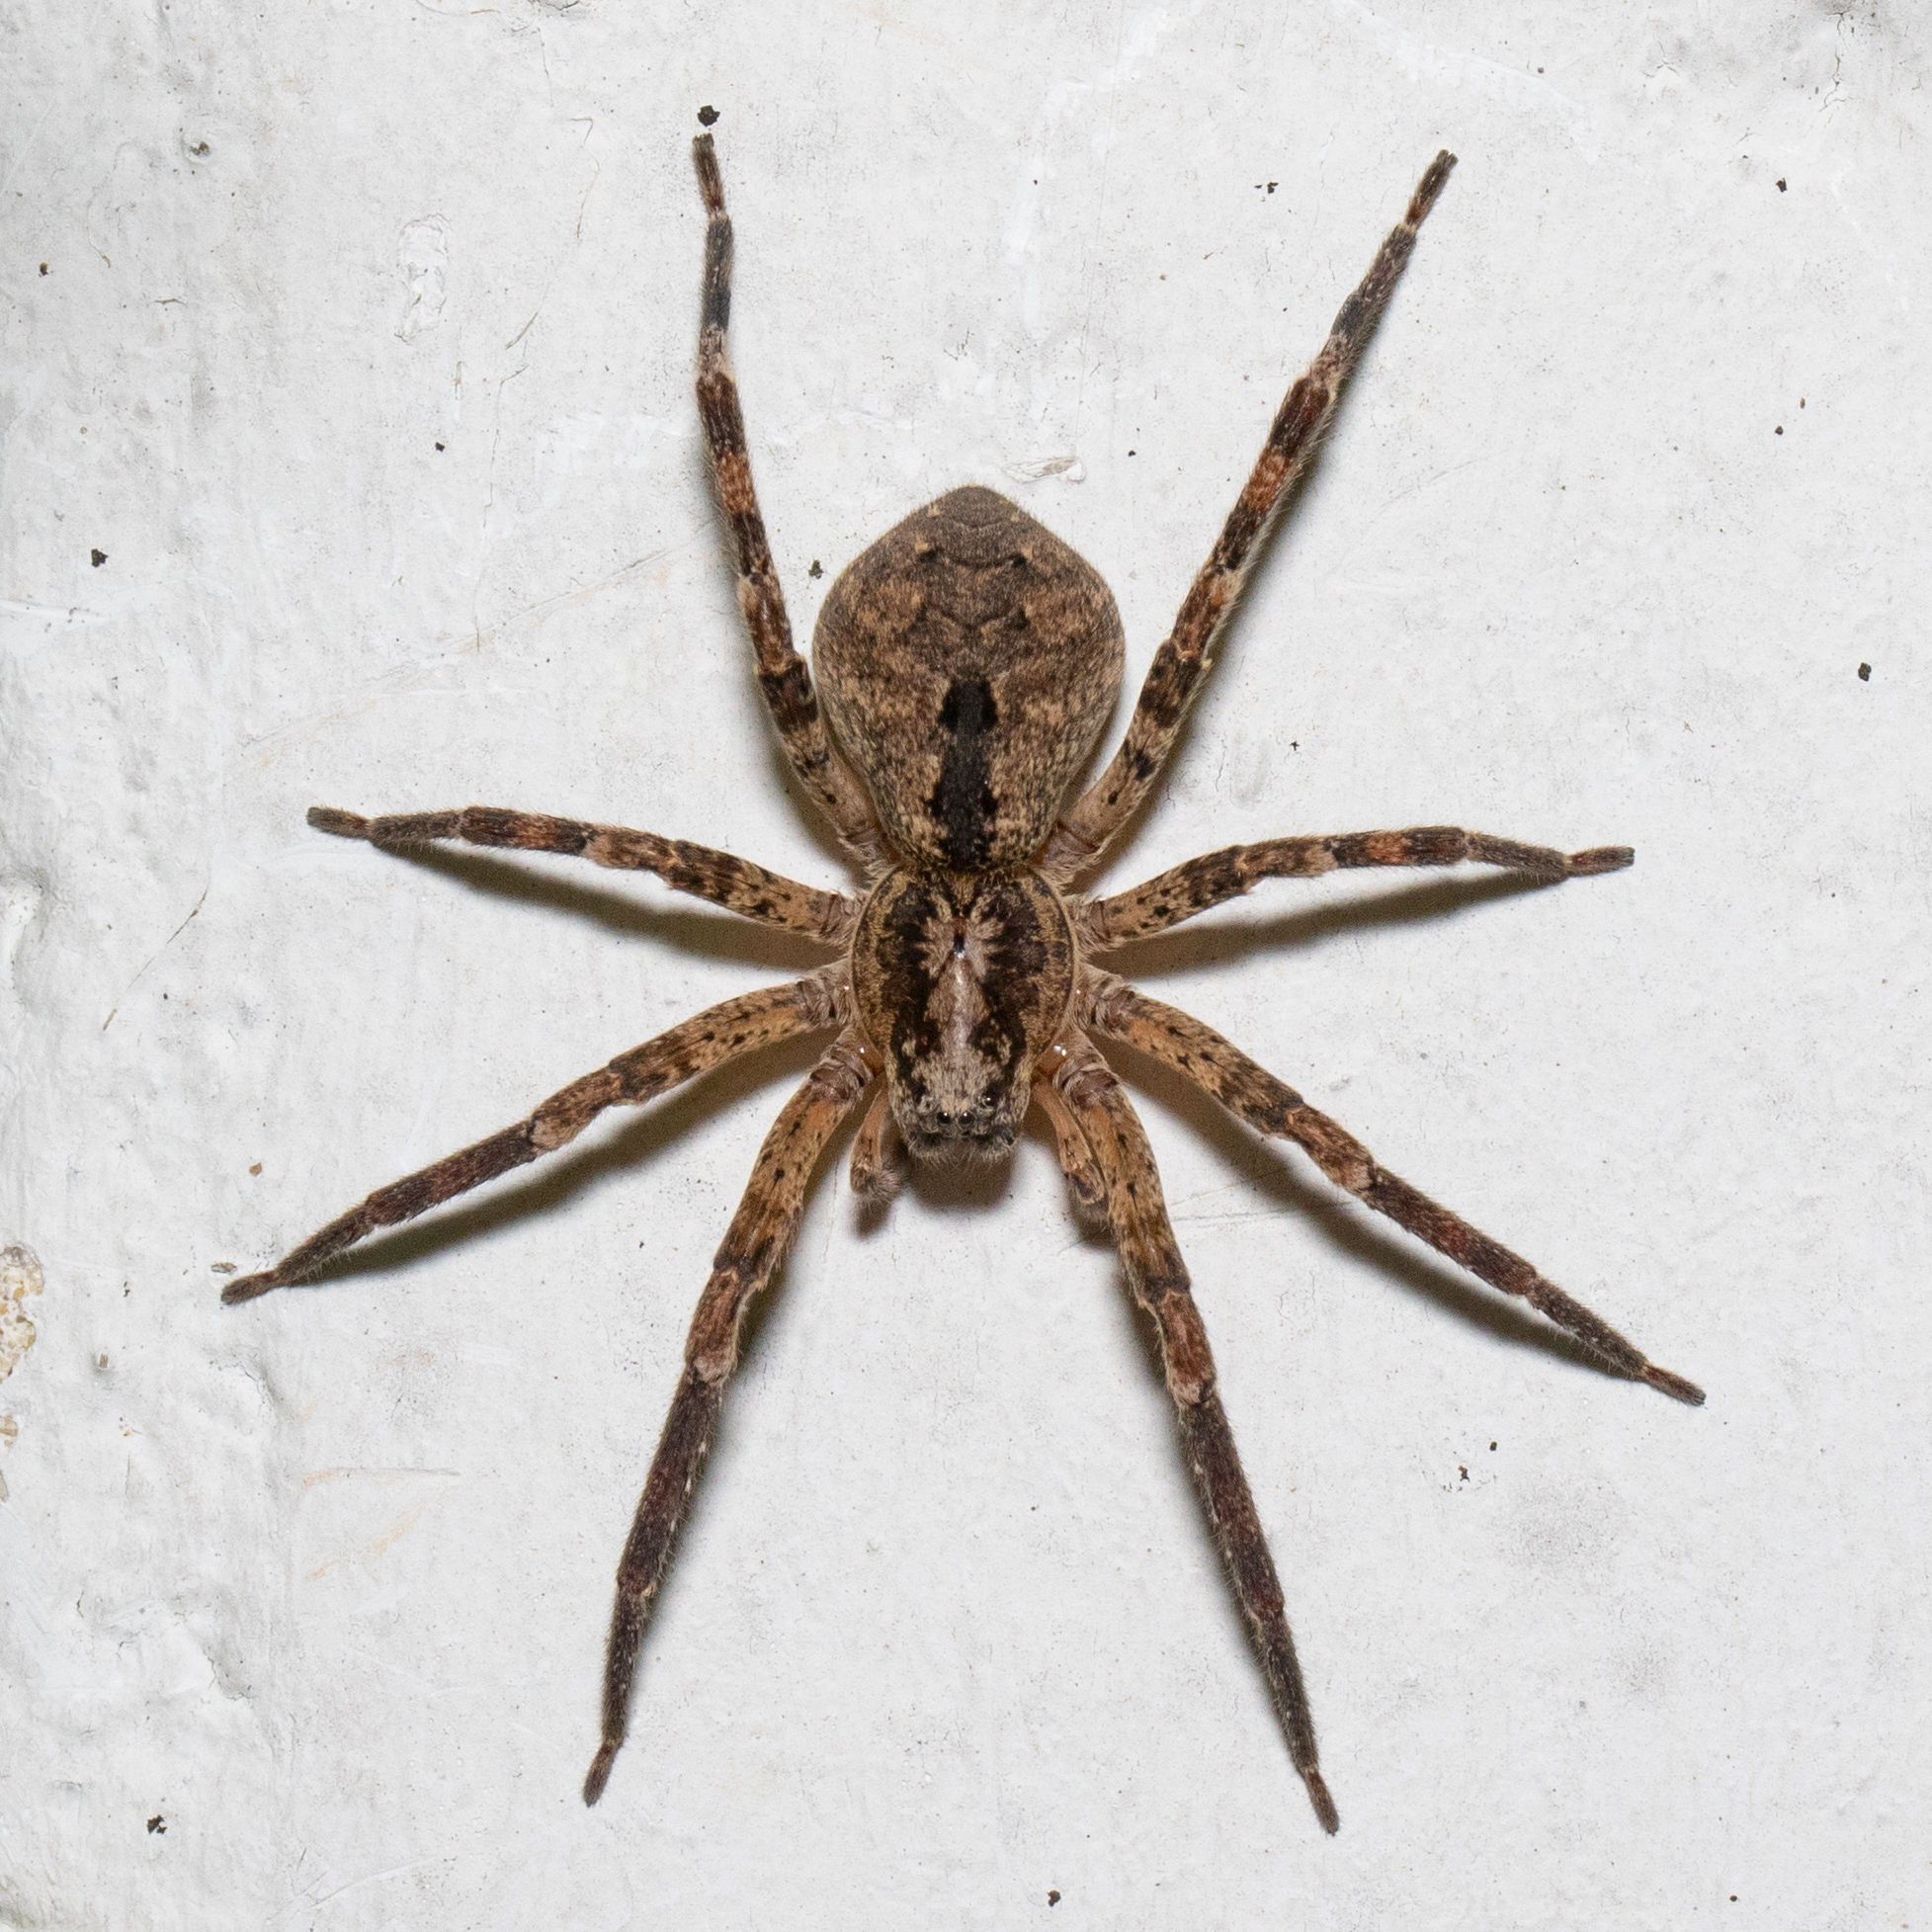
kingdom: Animalia
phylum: Arthropoda
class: Arachnida
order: Araneae
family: Zoropsidae
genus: Zoropsis
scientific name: Zoropsis spinimana
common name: Zoropsid spider
